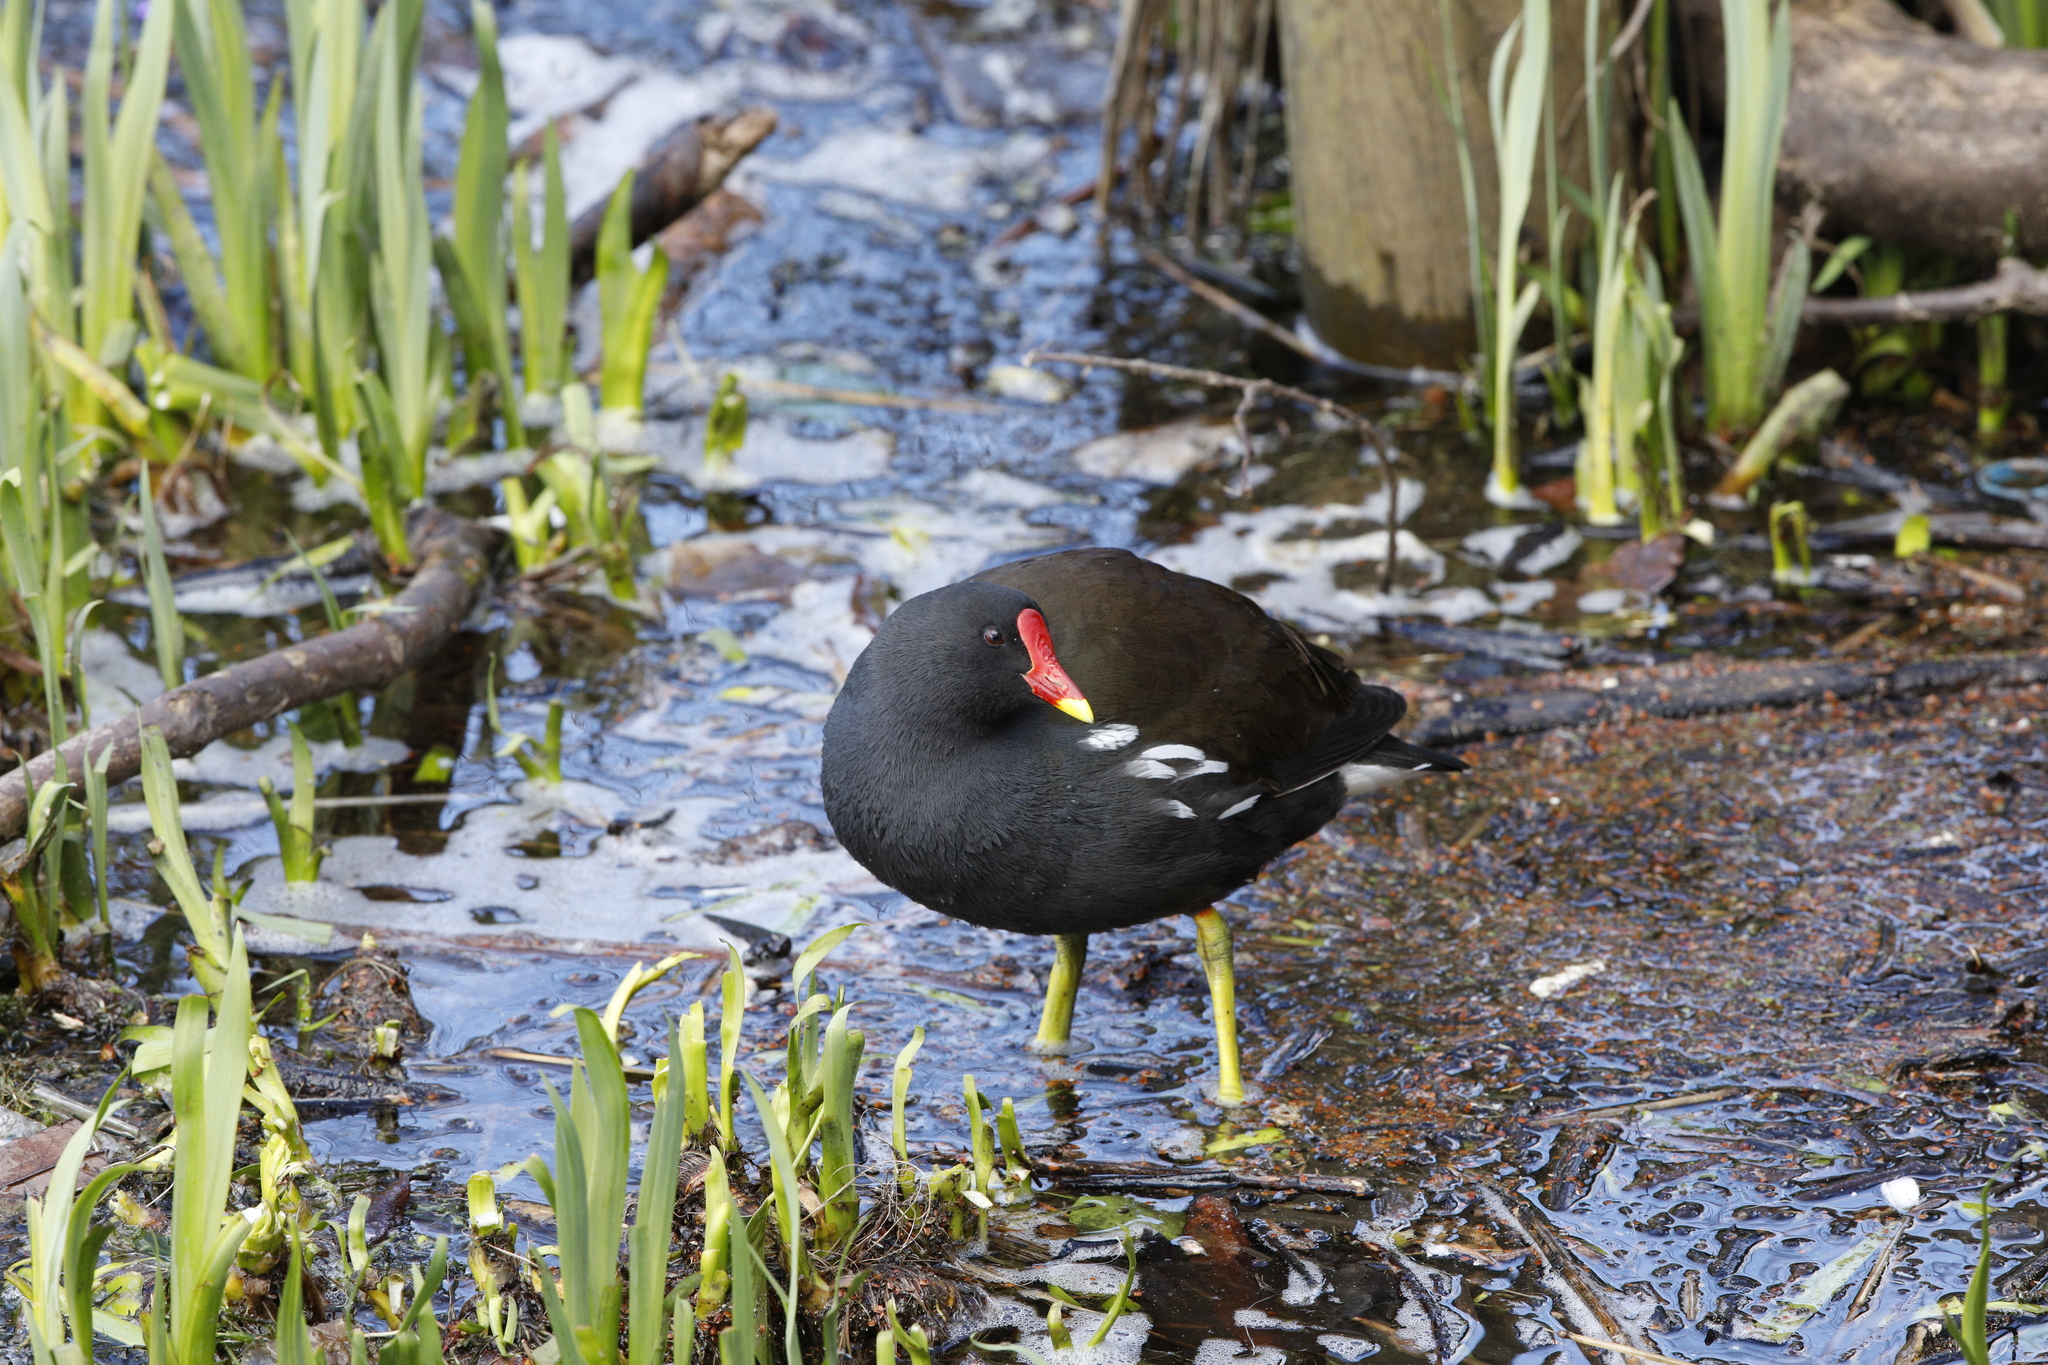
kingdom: Animalia
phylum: Chordata
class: Aves
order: Gruiformes
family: Rallidae
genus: Gallinula
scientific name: Gallinula chloropus
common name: Common moorhen
